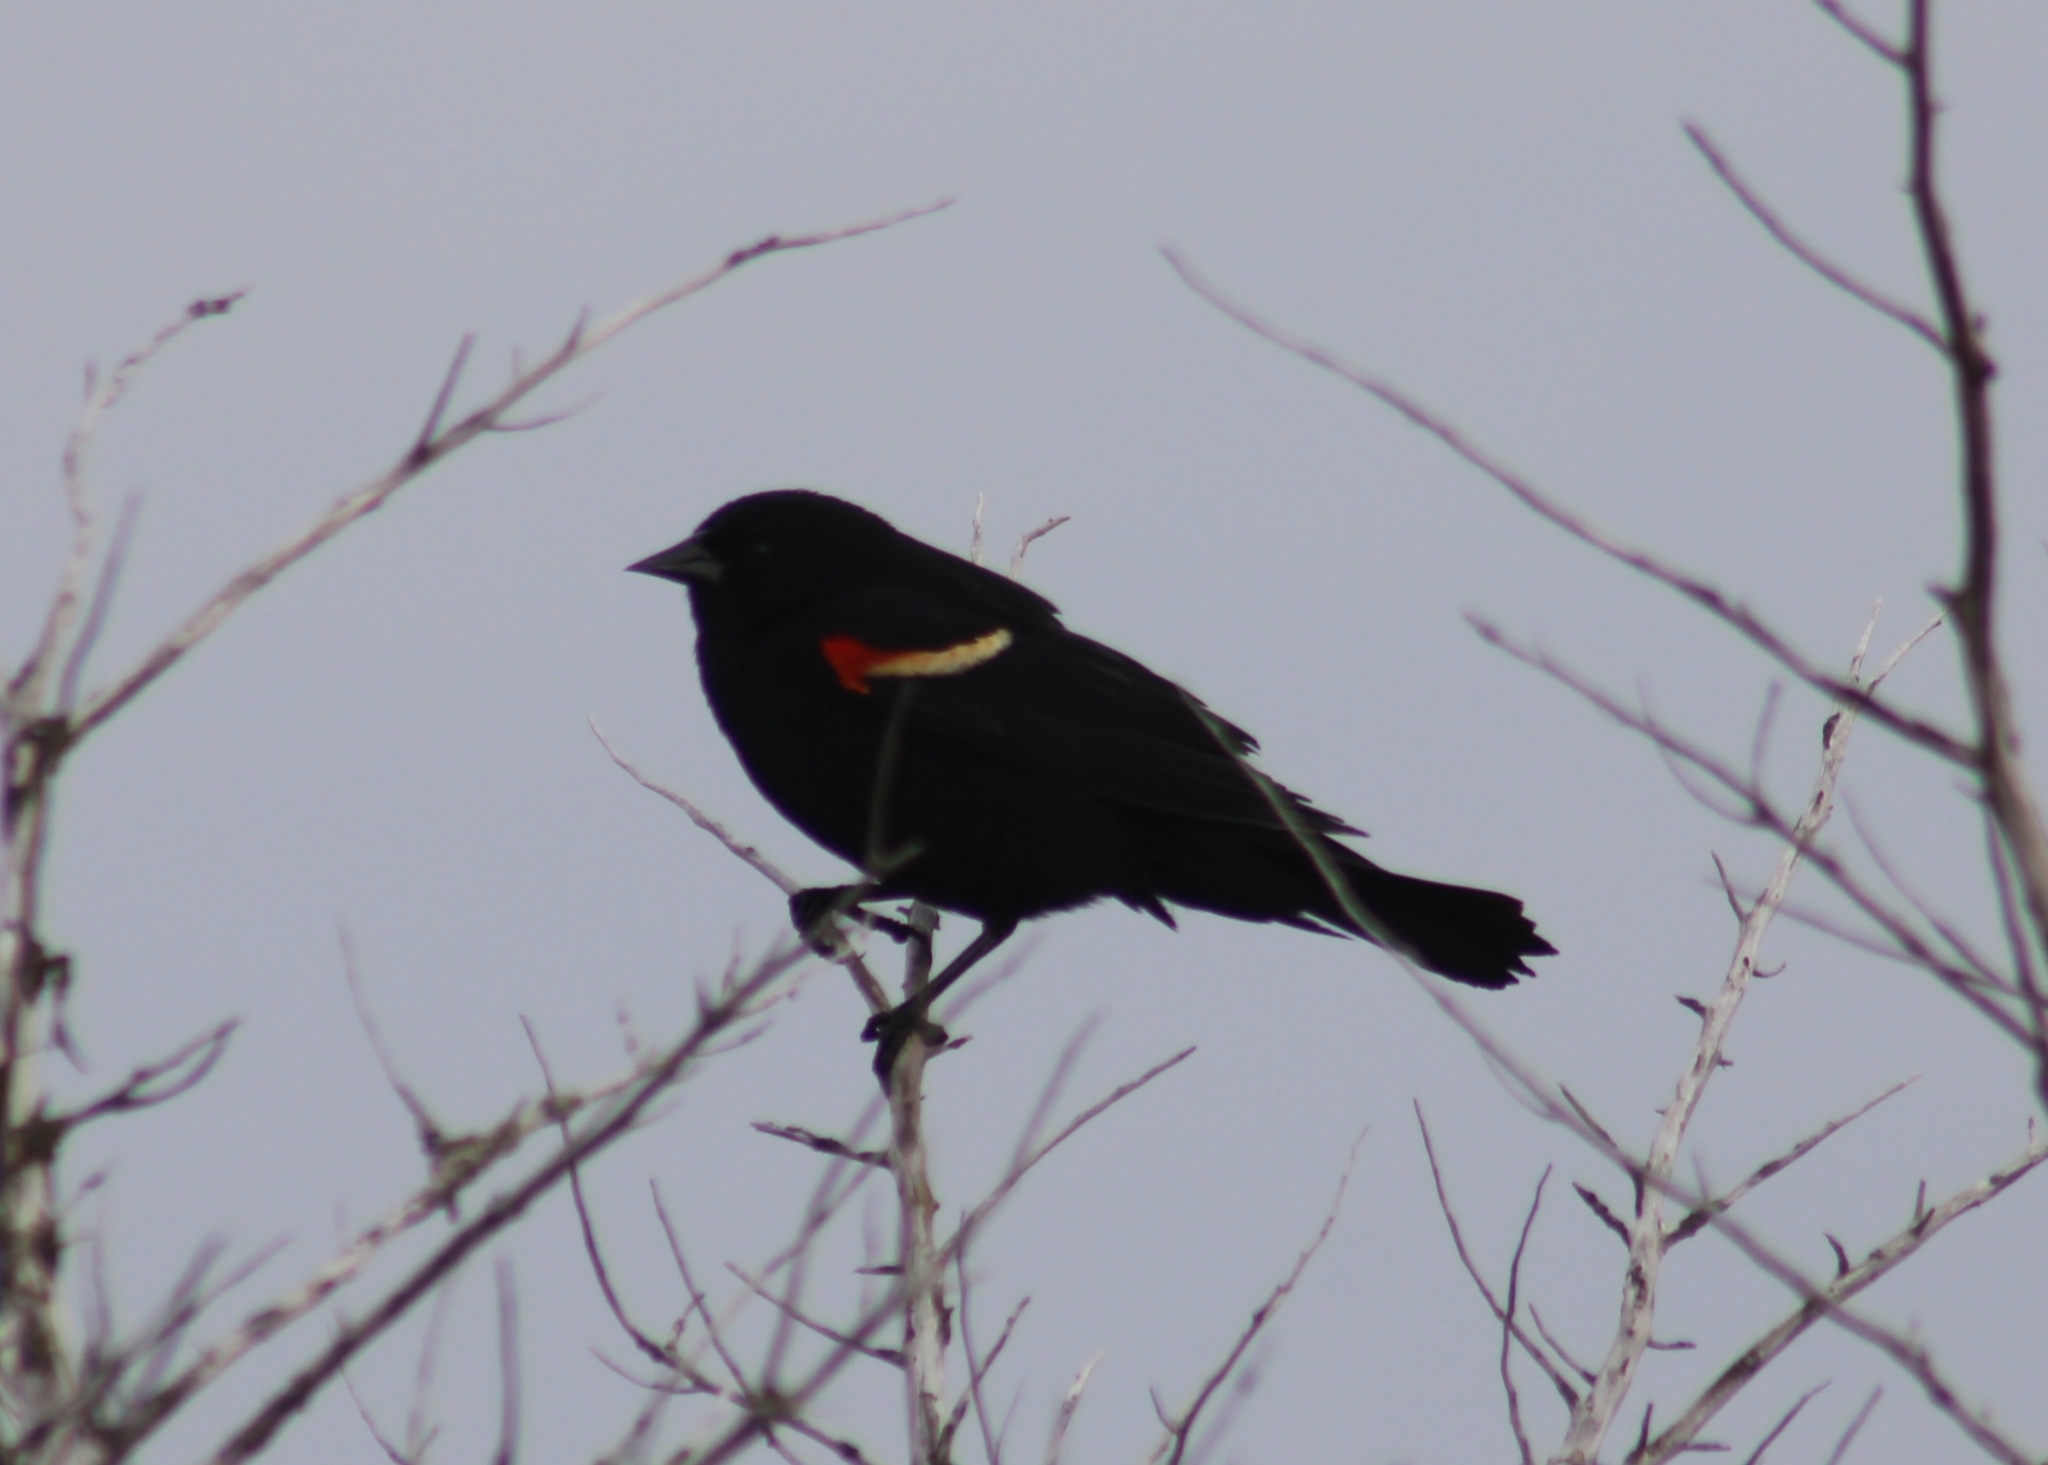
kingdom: Animalia
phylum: Chordata
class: Aves
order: Passeriformes
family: Icteridae
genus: Agelaius
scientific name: Agelaius phoeniceus
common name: Red-winged blackbird
